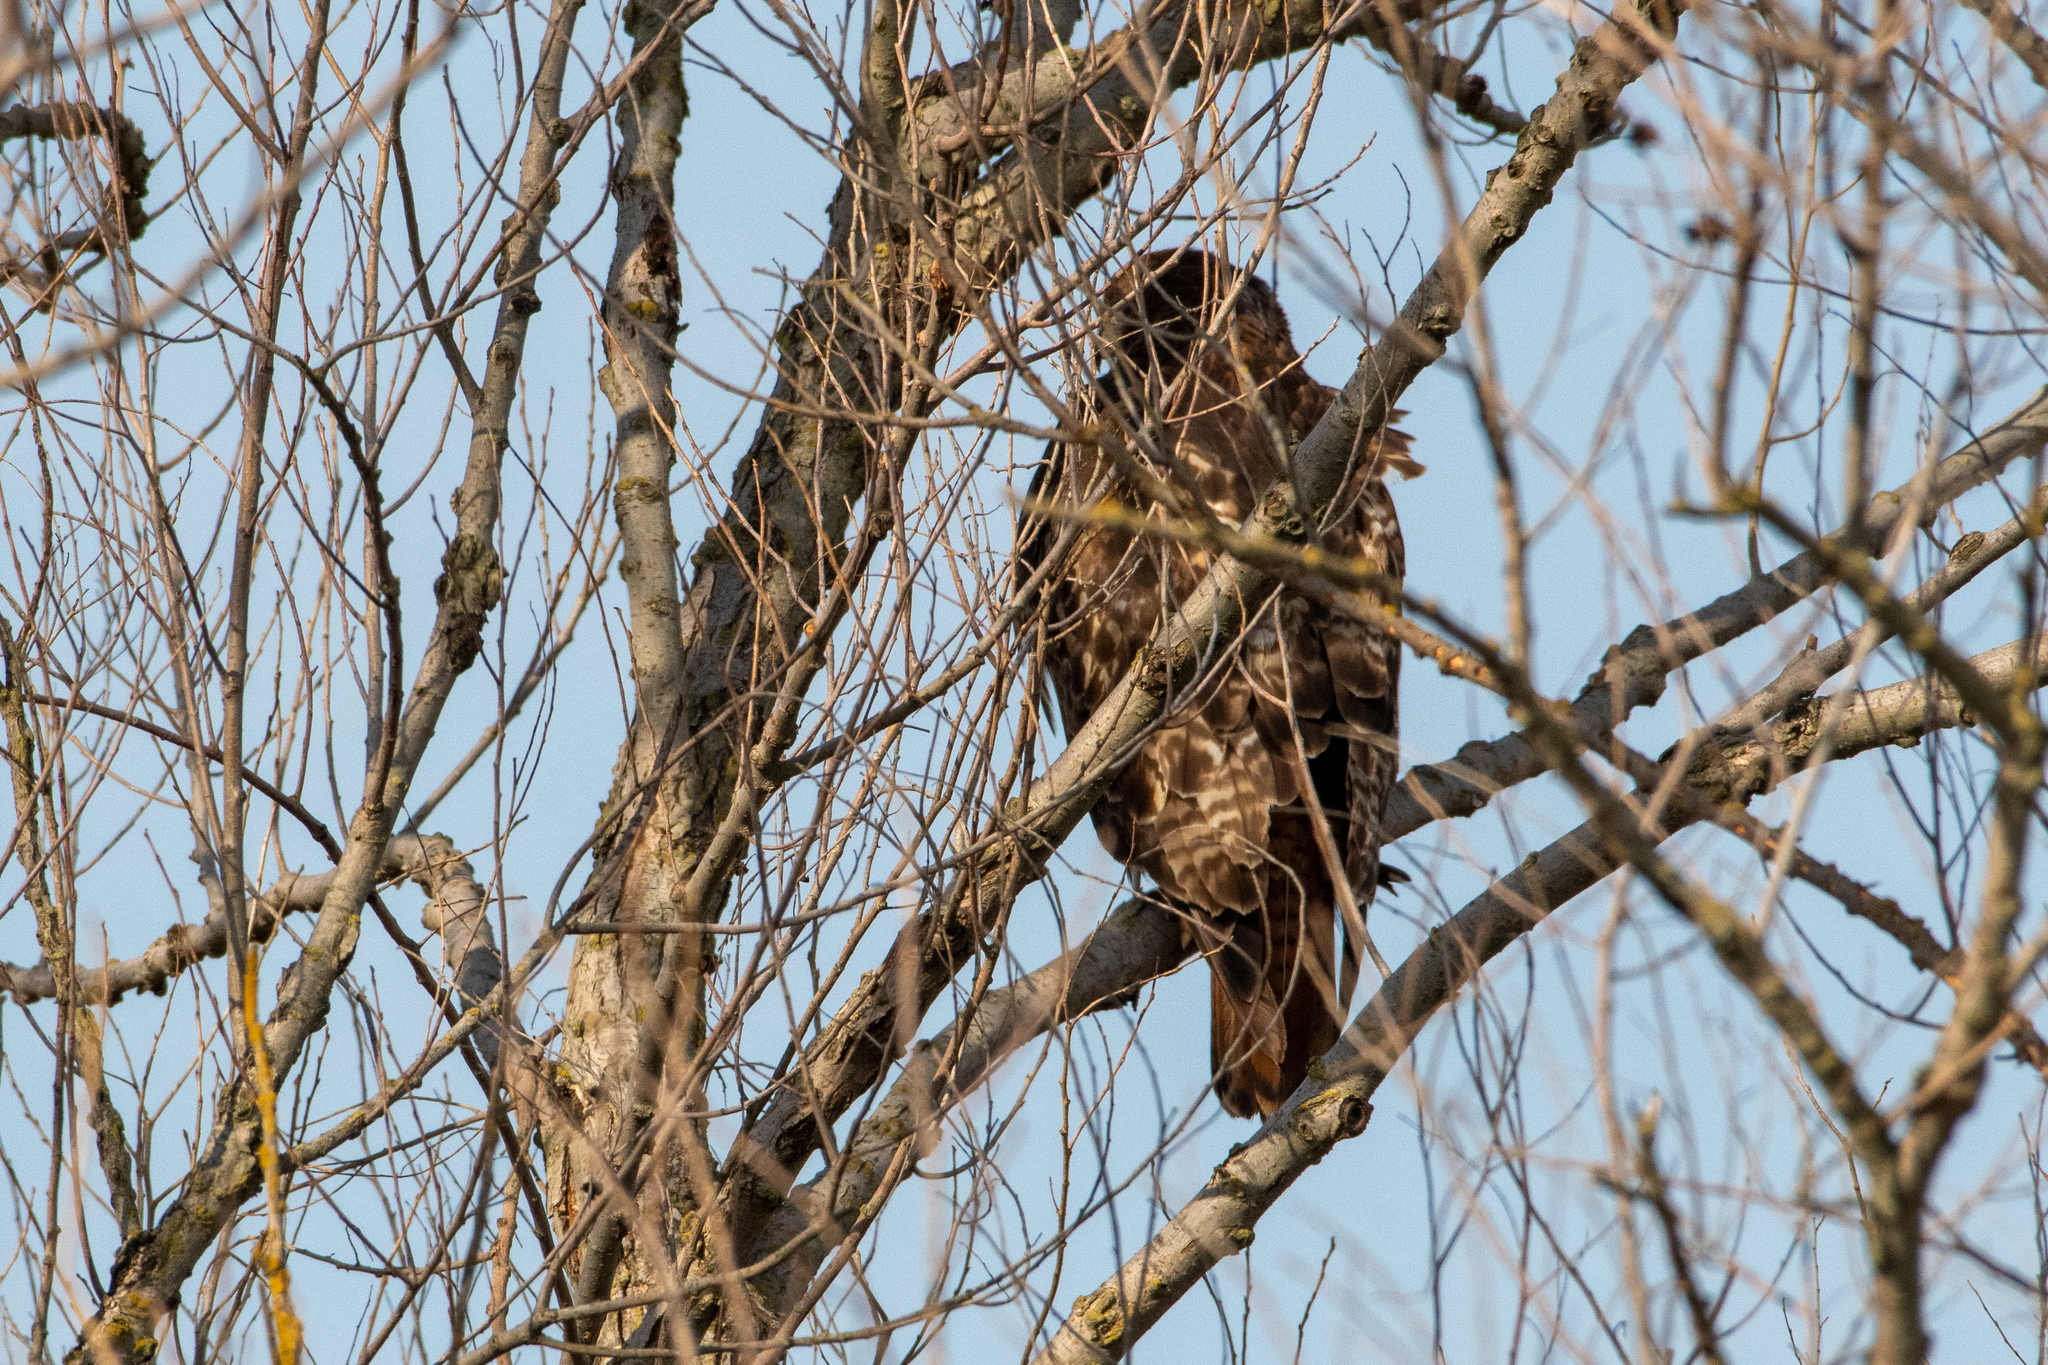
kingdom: Animalia
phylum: Chordata
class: Aves
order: Accipitriformes
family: Accipitridae
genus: Buteo
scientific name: Buteo jamaicensis
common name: Red-tailed hawk
